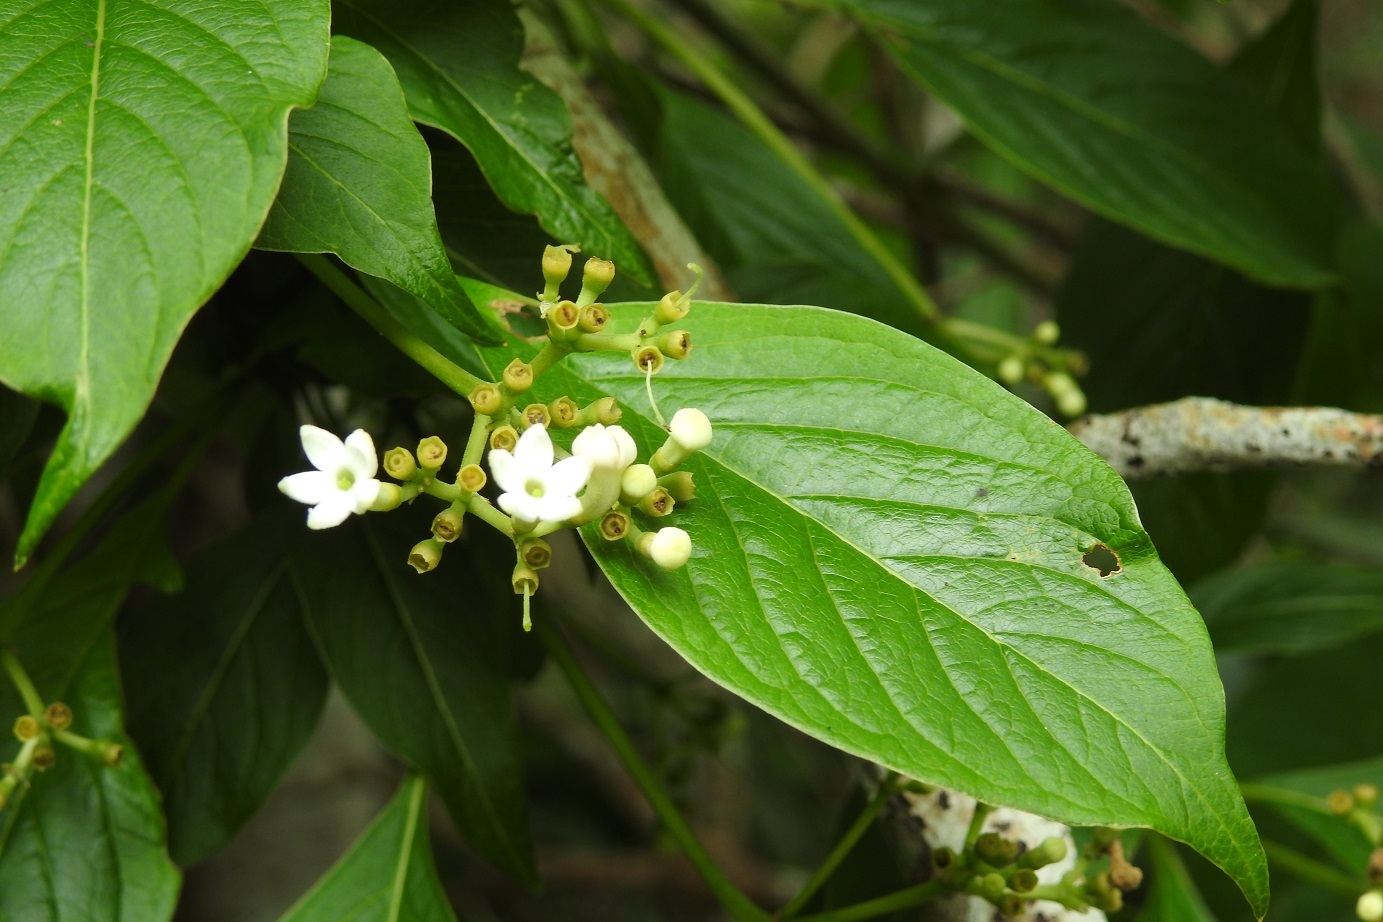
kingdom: Plantae
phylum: Tracheophyta
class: Magnoliopsida
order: Gentianales
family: Rubiaceae
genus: Coussarea
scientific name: Coussarea chiapensis
